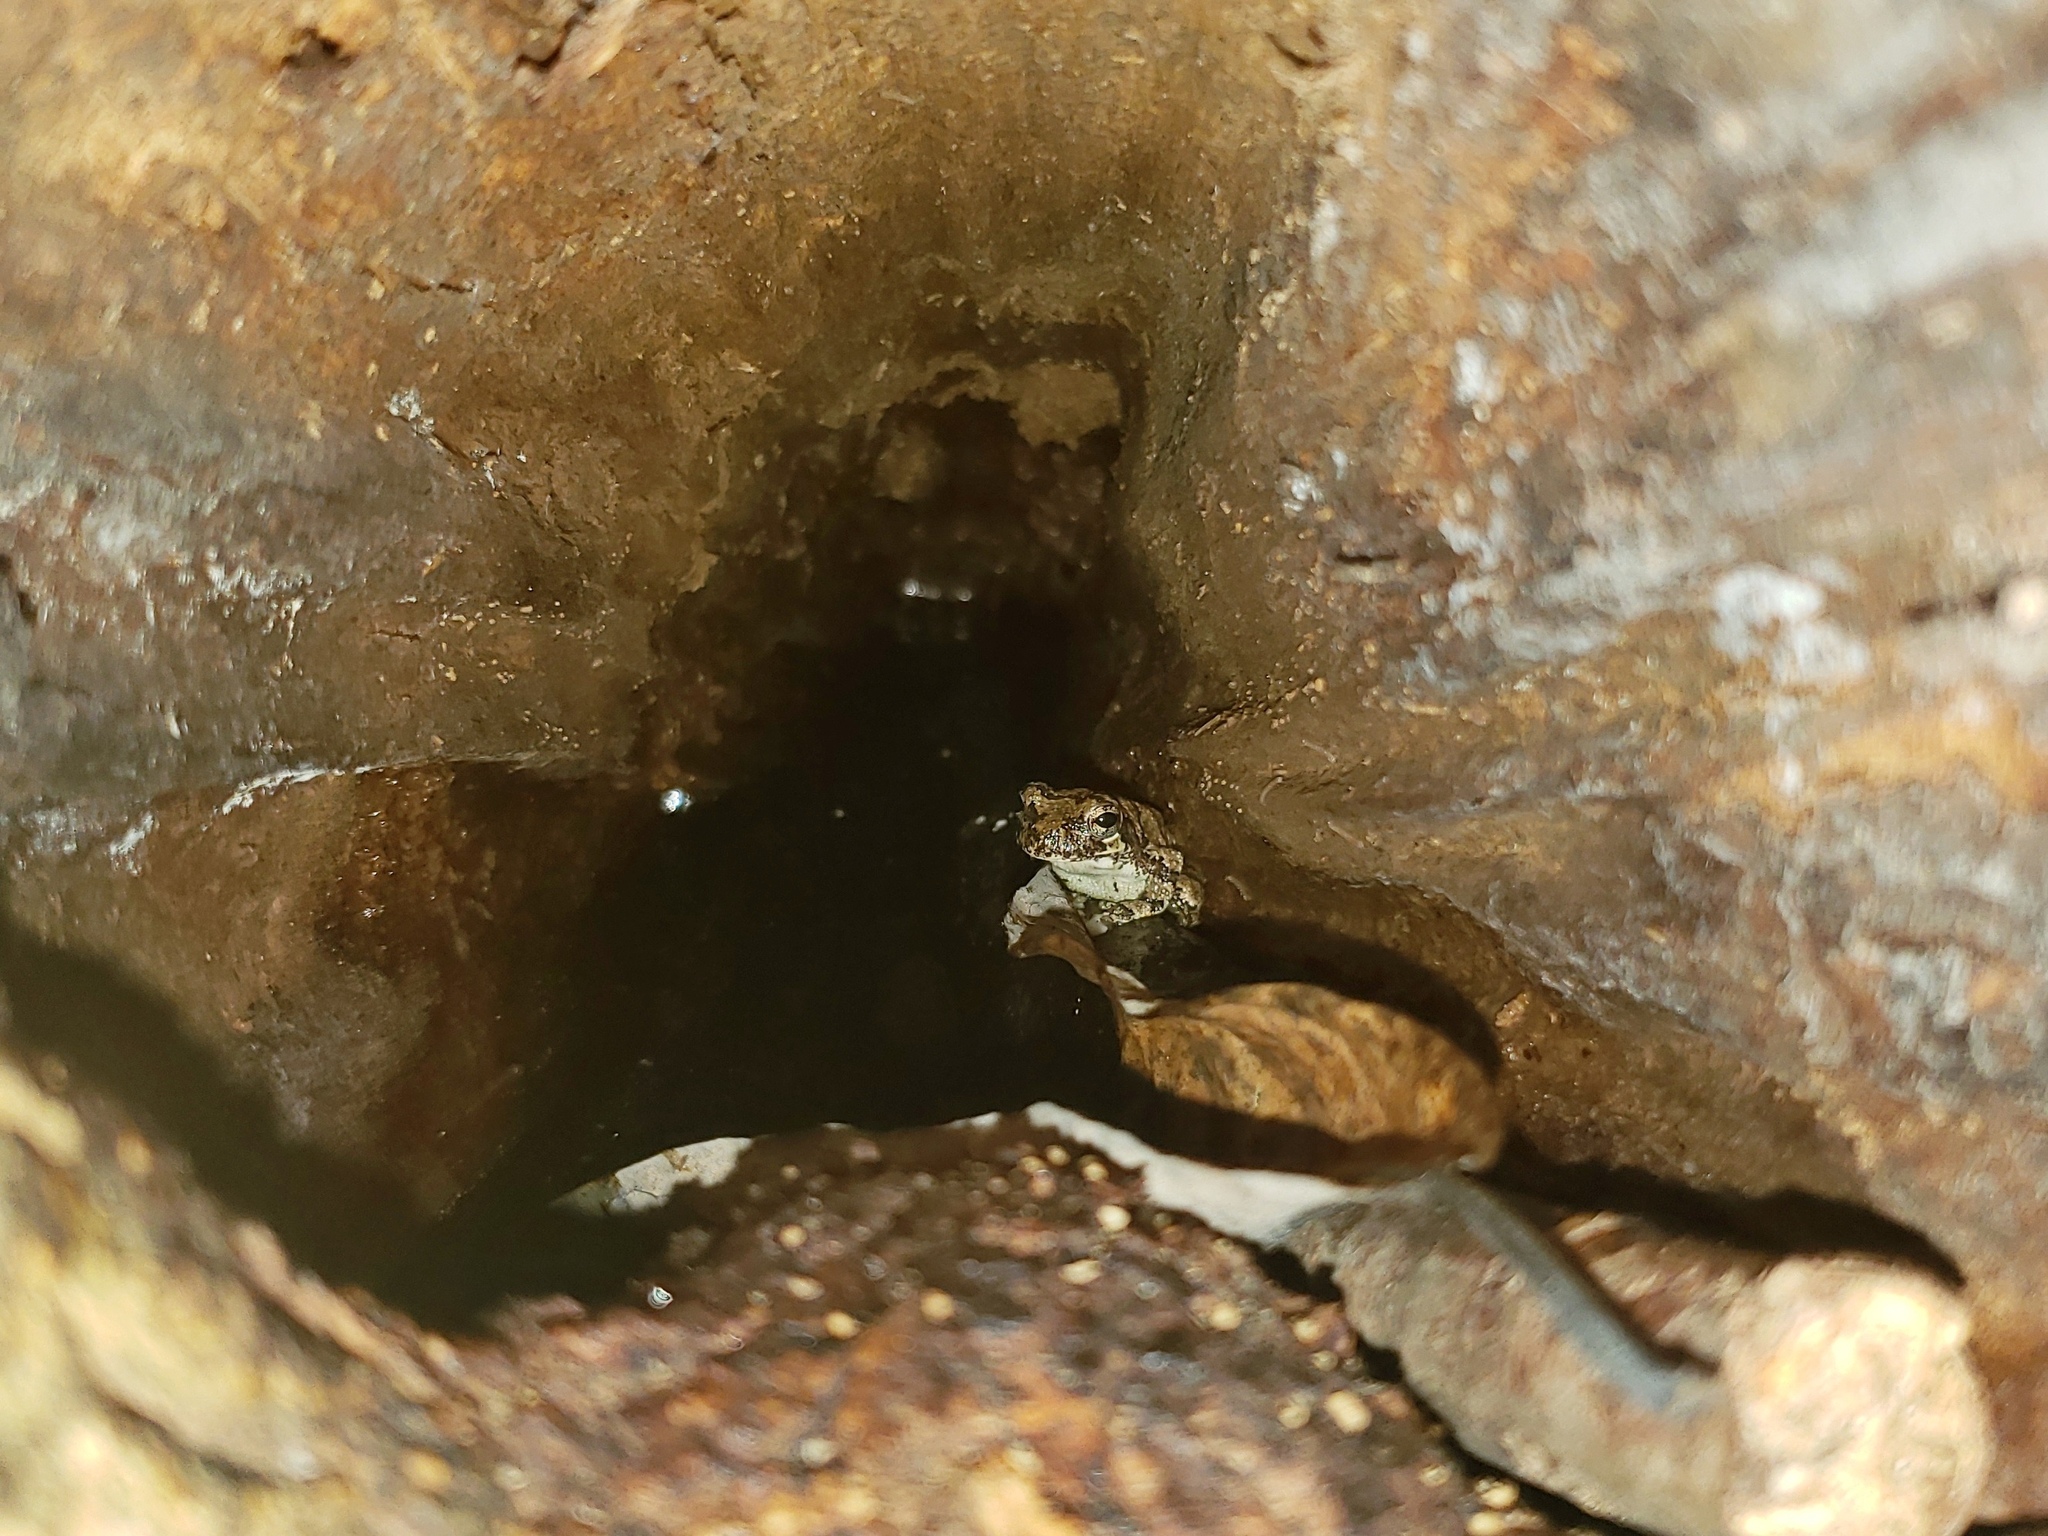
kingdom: Animalia
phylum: Chordata
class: Amphibia
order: Anura
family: Hylidae
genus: Dryophytes
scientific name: Dryophytes chrysoscelis
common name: Cope's gray treefrog
